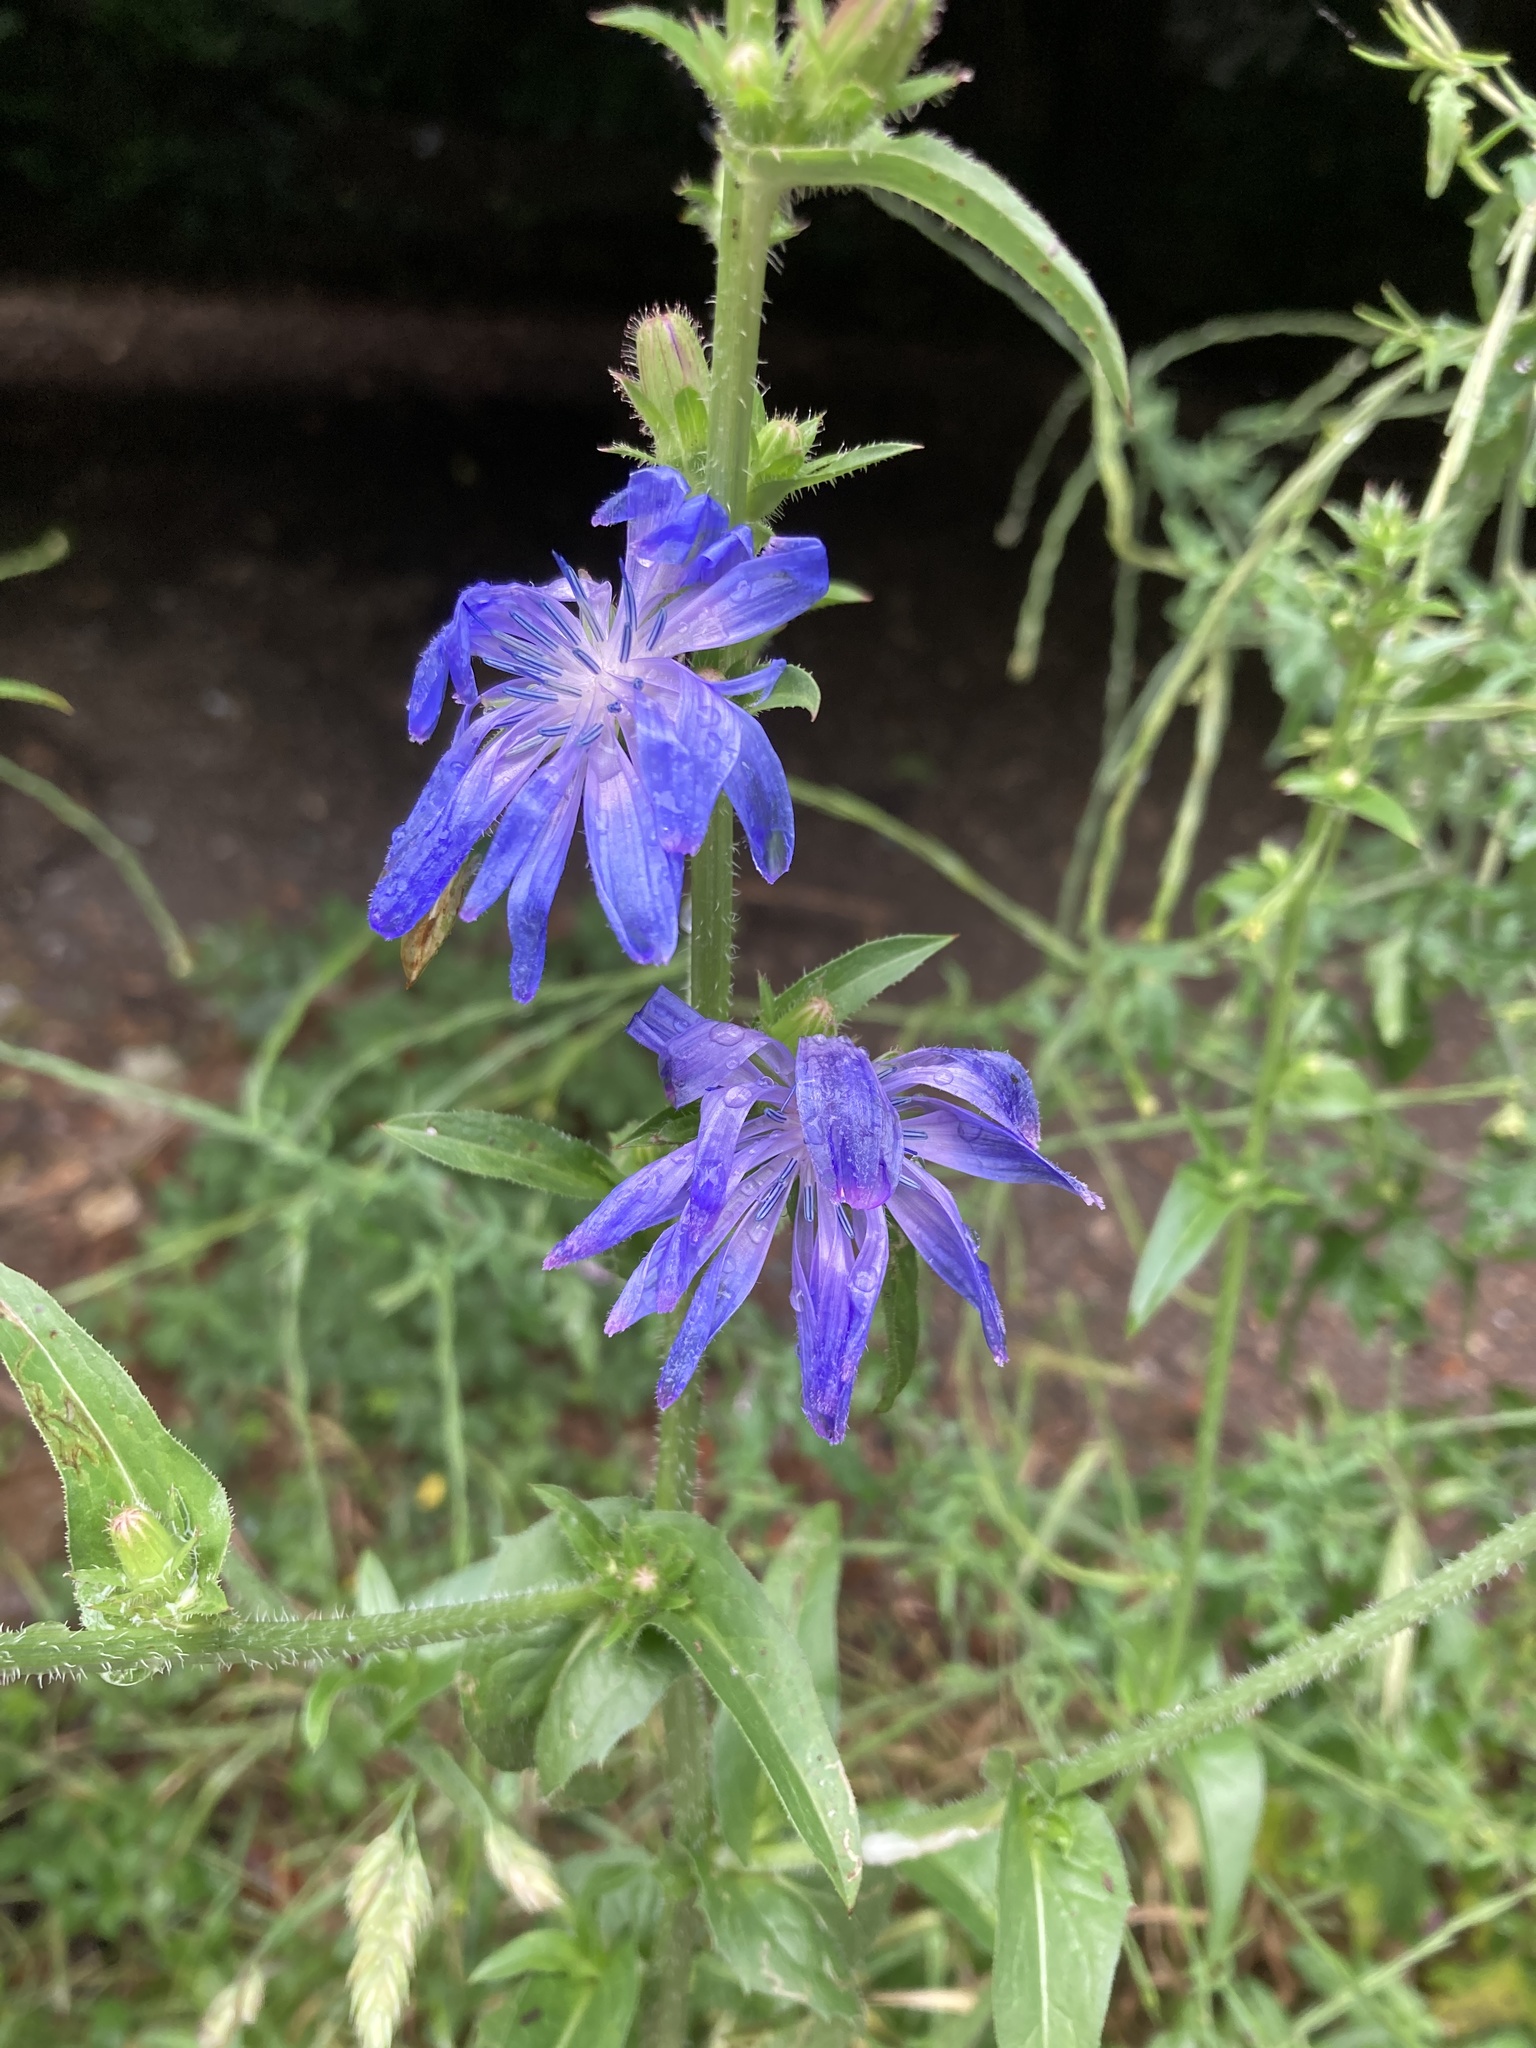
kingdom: Plantae
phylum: Tracheophyta
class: Magnoliopsida
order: Asterales
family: Asteraceae
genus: Cichorium
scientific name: Cichorium intybus
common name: Chicory
